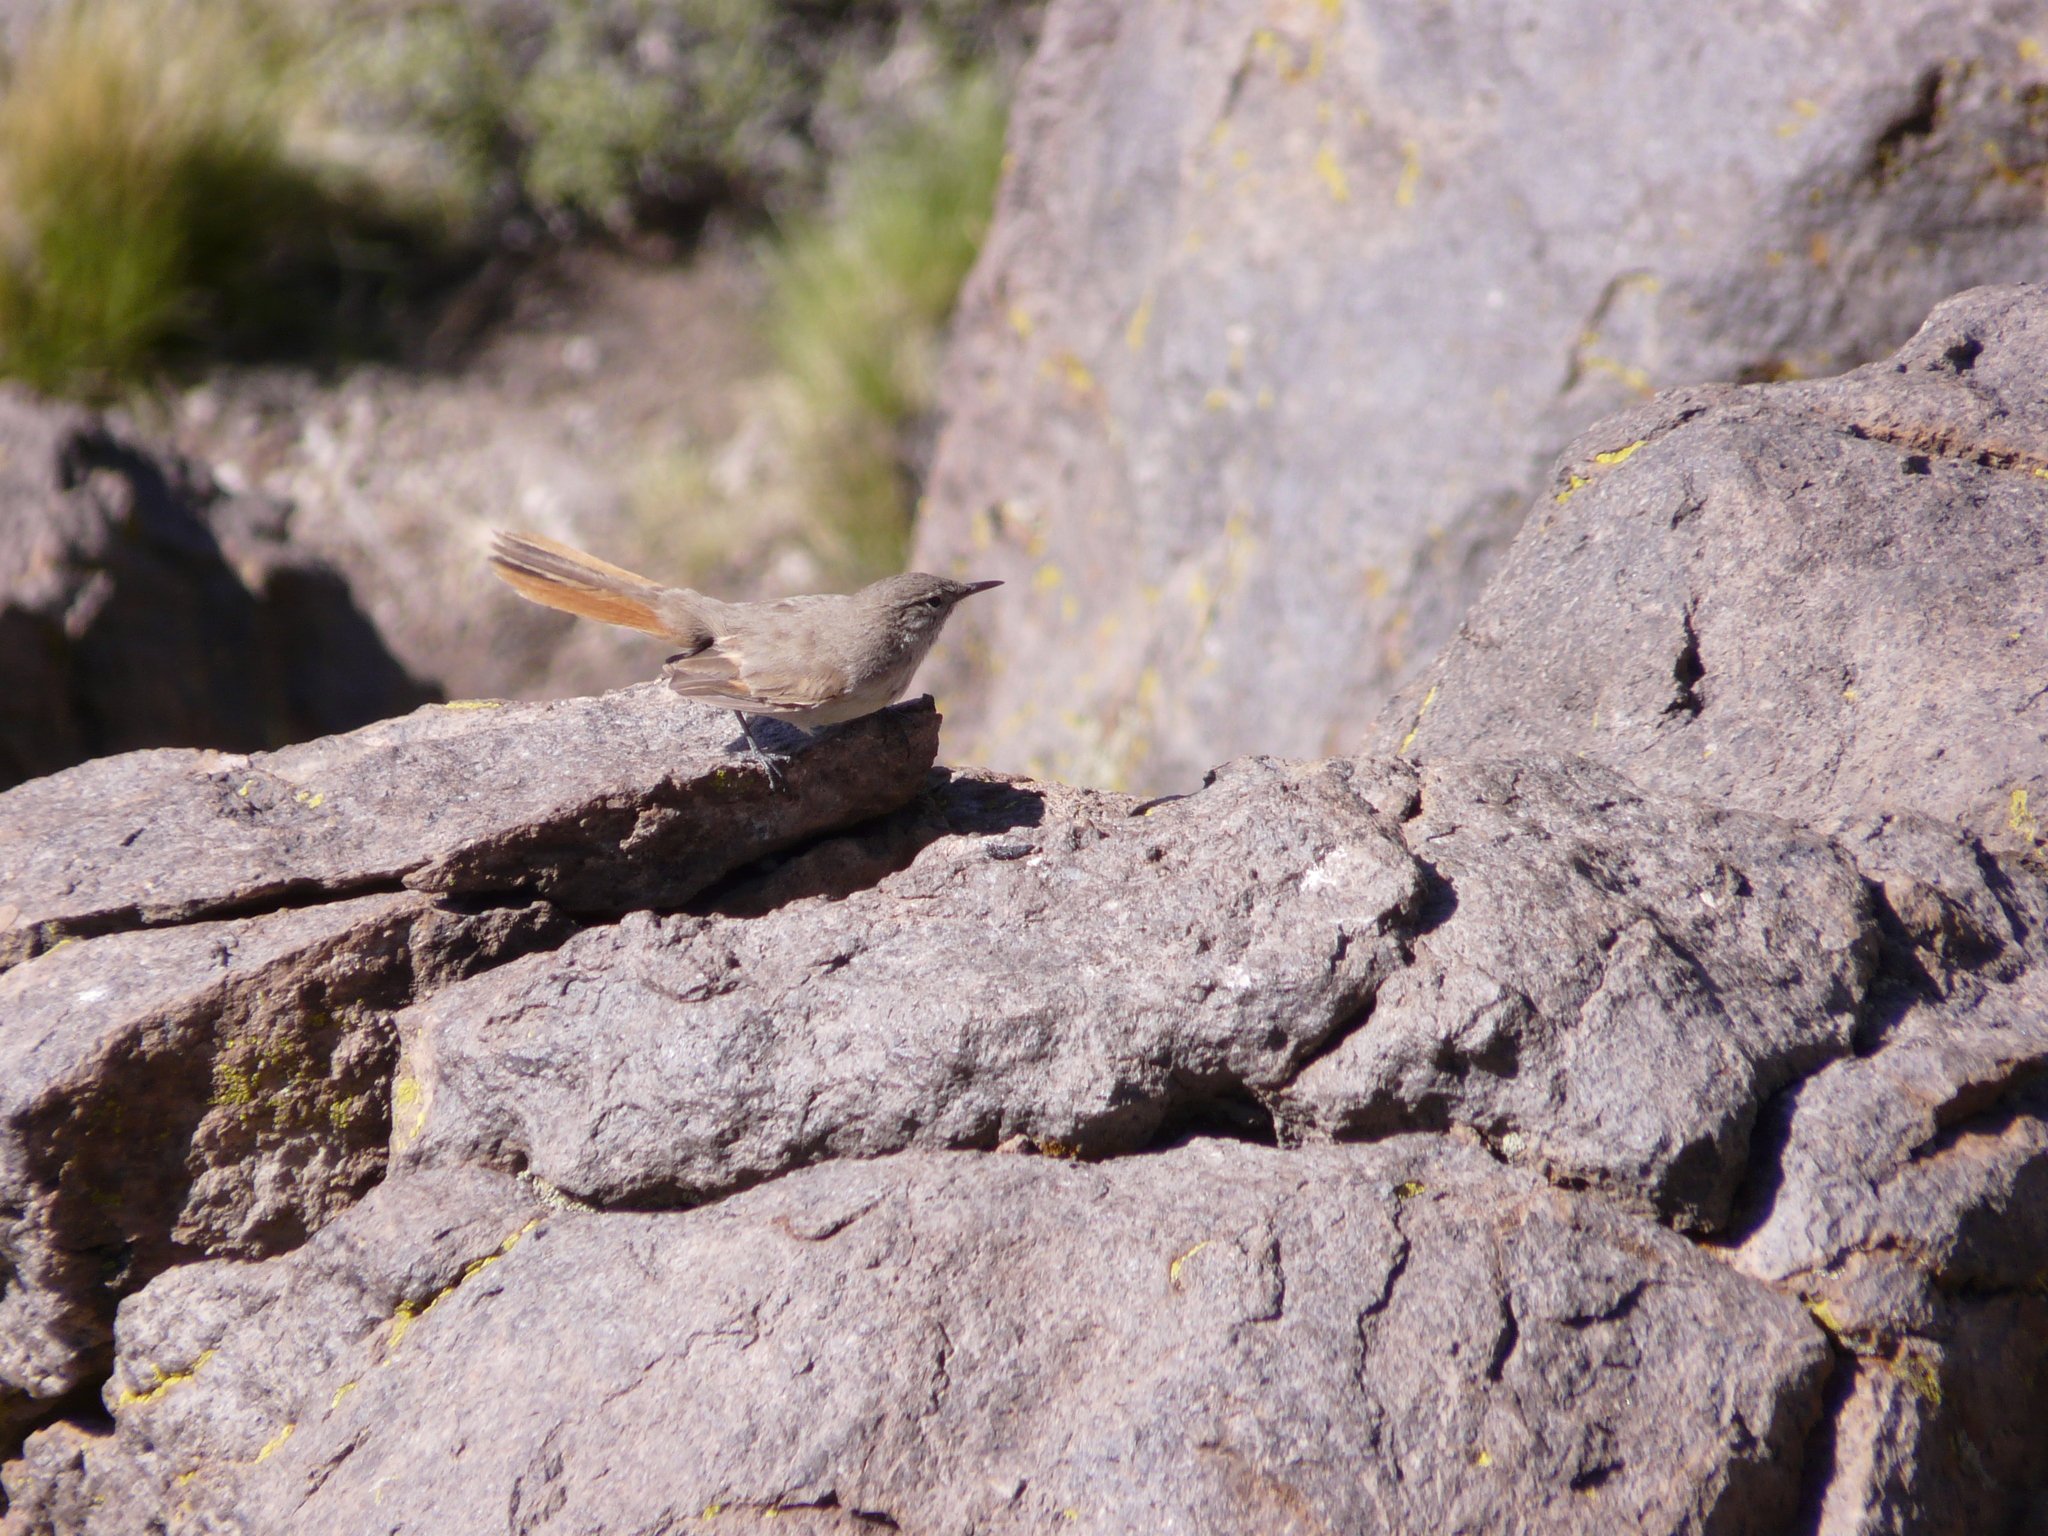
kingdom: Animalia
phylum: Chordata
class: Aves
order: Passeriformes
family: Furnariidae
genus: Eremobius
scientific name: Eremobius phoenicurus
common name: Band-tailed eremobius
